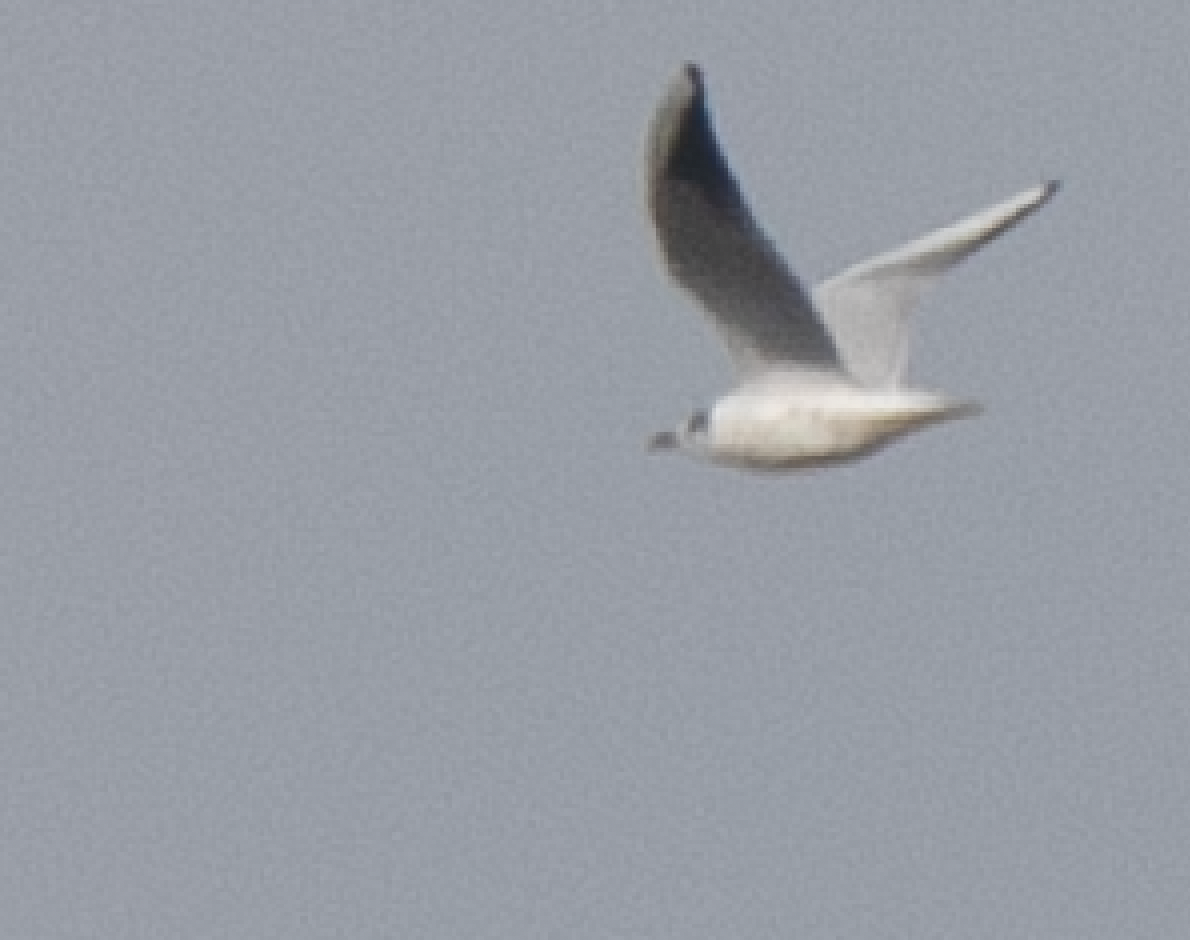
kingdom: Animalia
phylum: Chordata
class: Aves
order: Charadriiformes
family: Laridae
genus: Chroicocephalus
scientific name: Chroicocephalus ridibundus
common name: Black-headed gull
